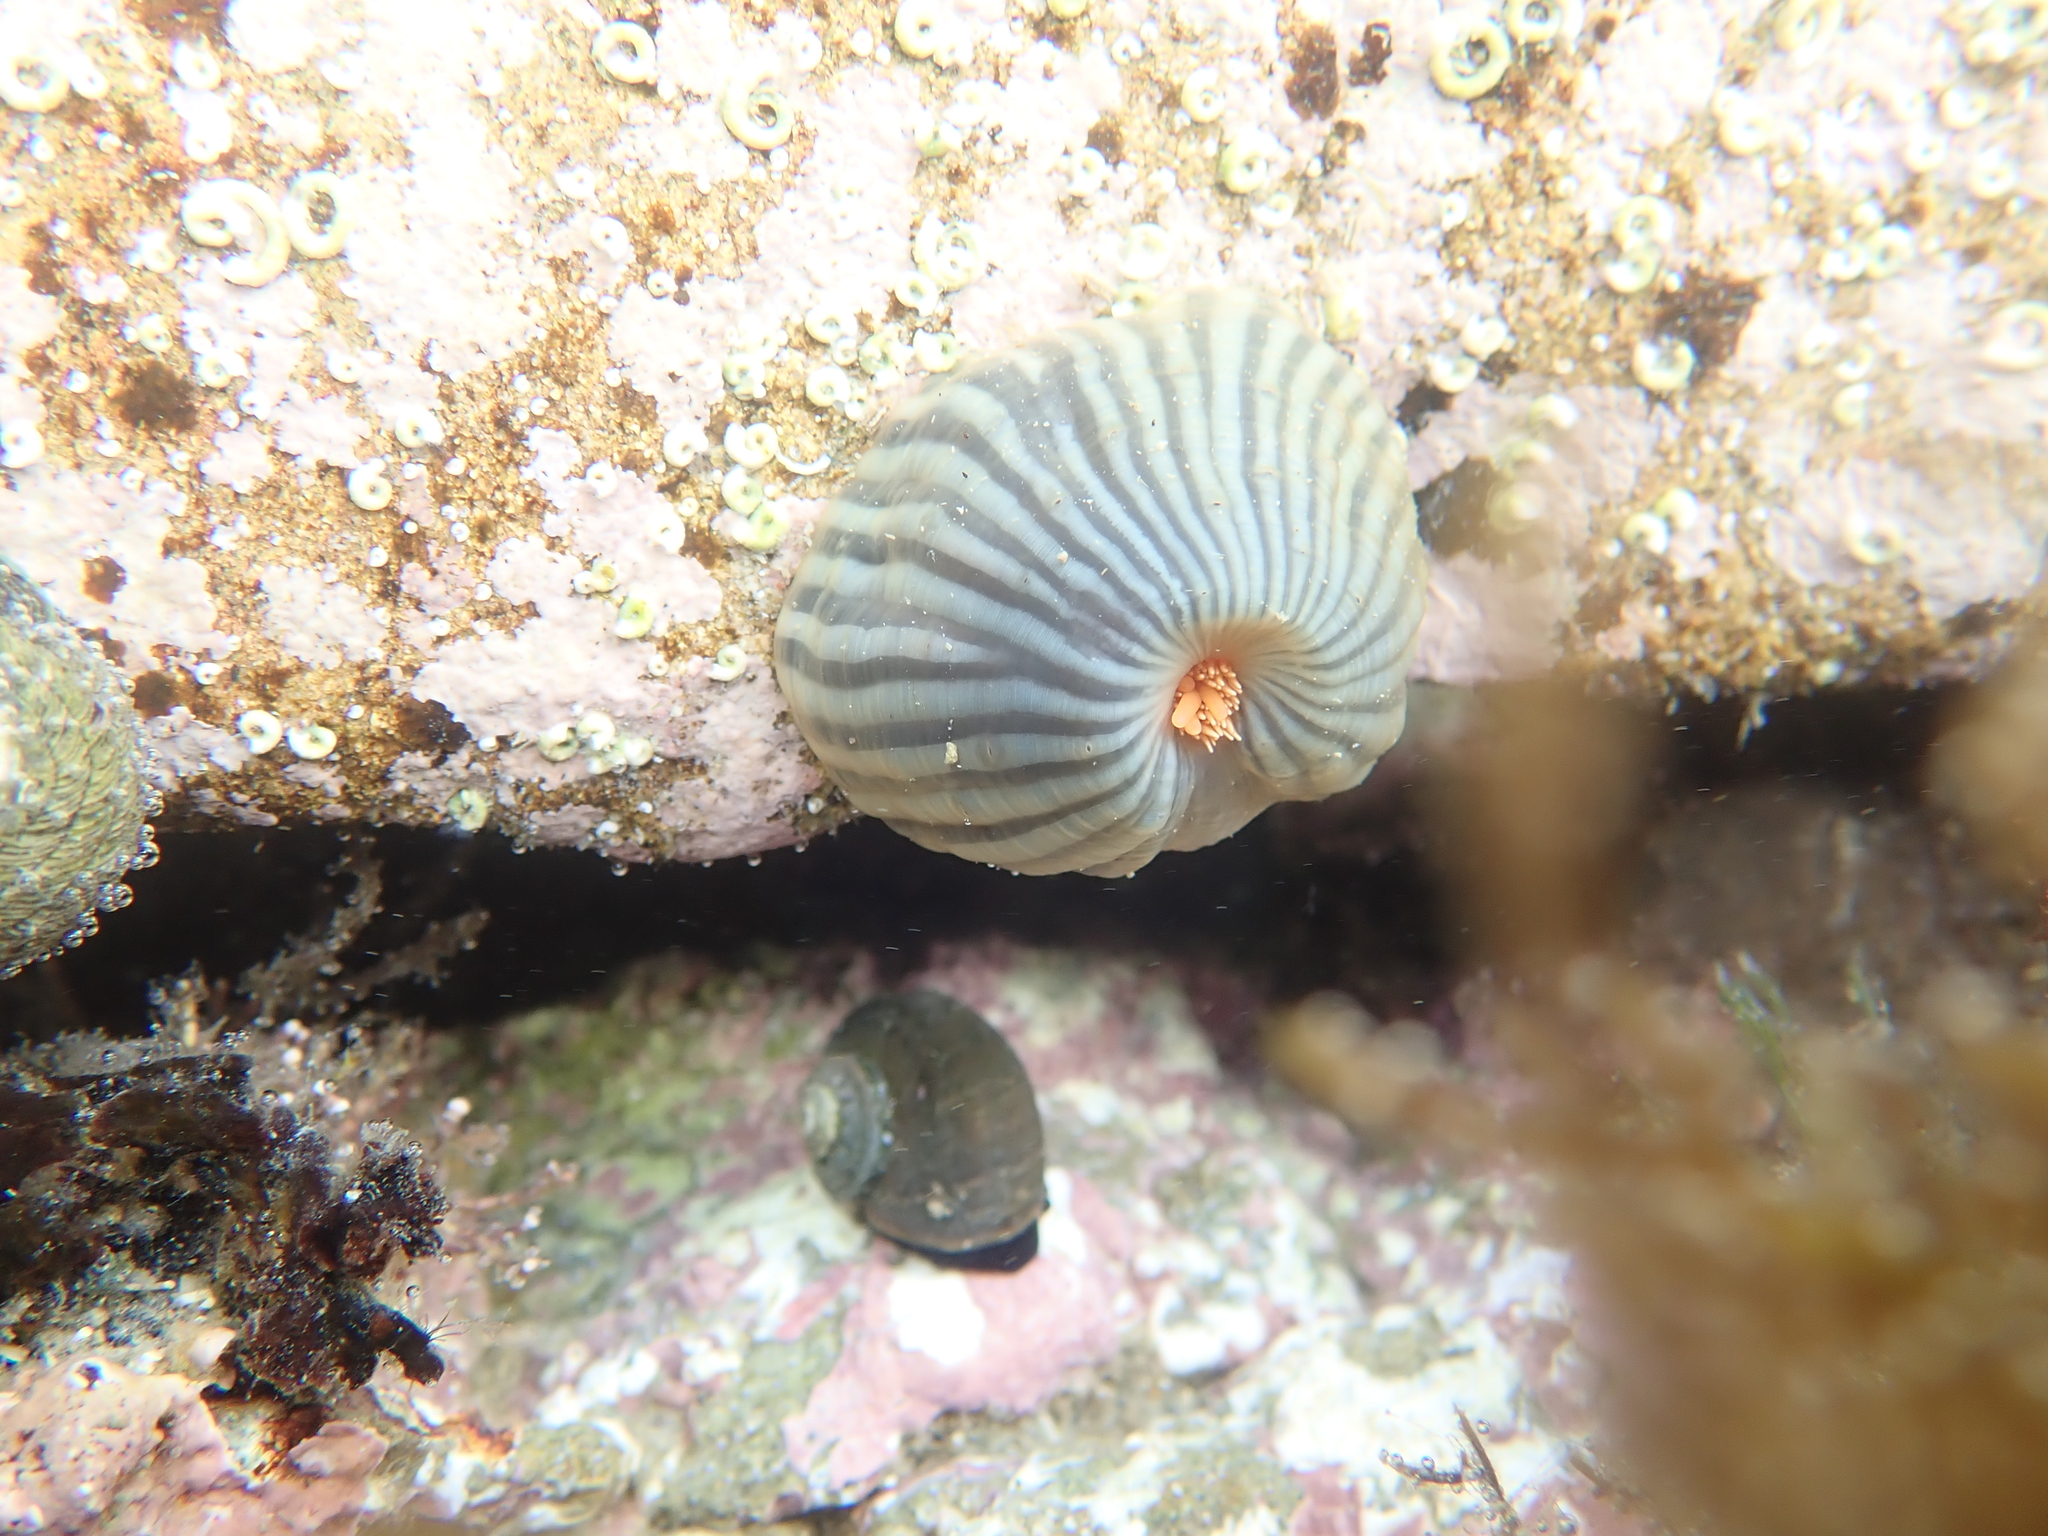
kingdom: Animalia
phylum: Cnidaria
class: Anthozoa
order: Actiniaria
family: Diadumenidae
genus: Diadumene
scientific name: Diadumene neozelanica
